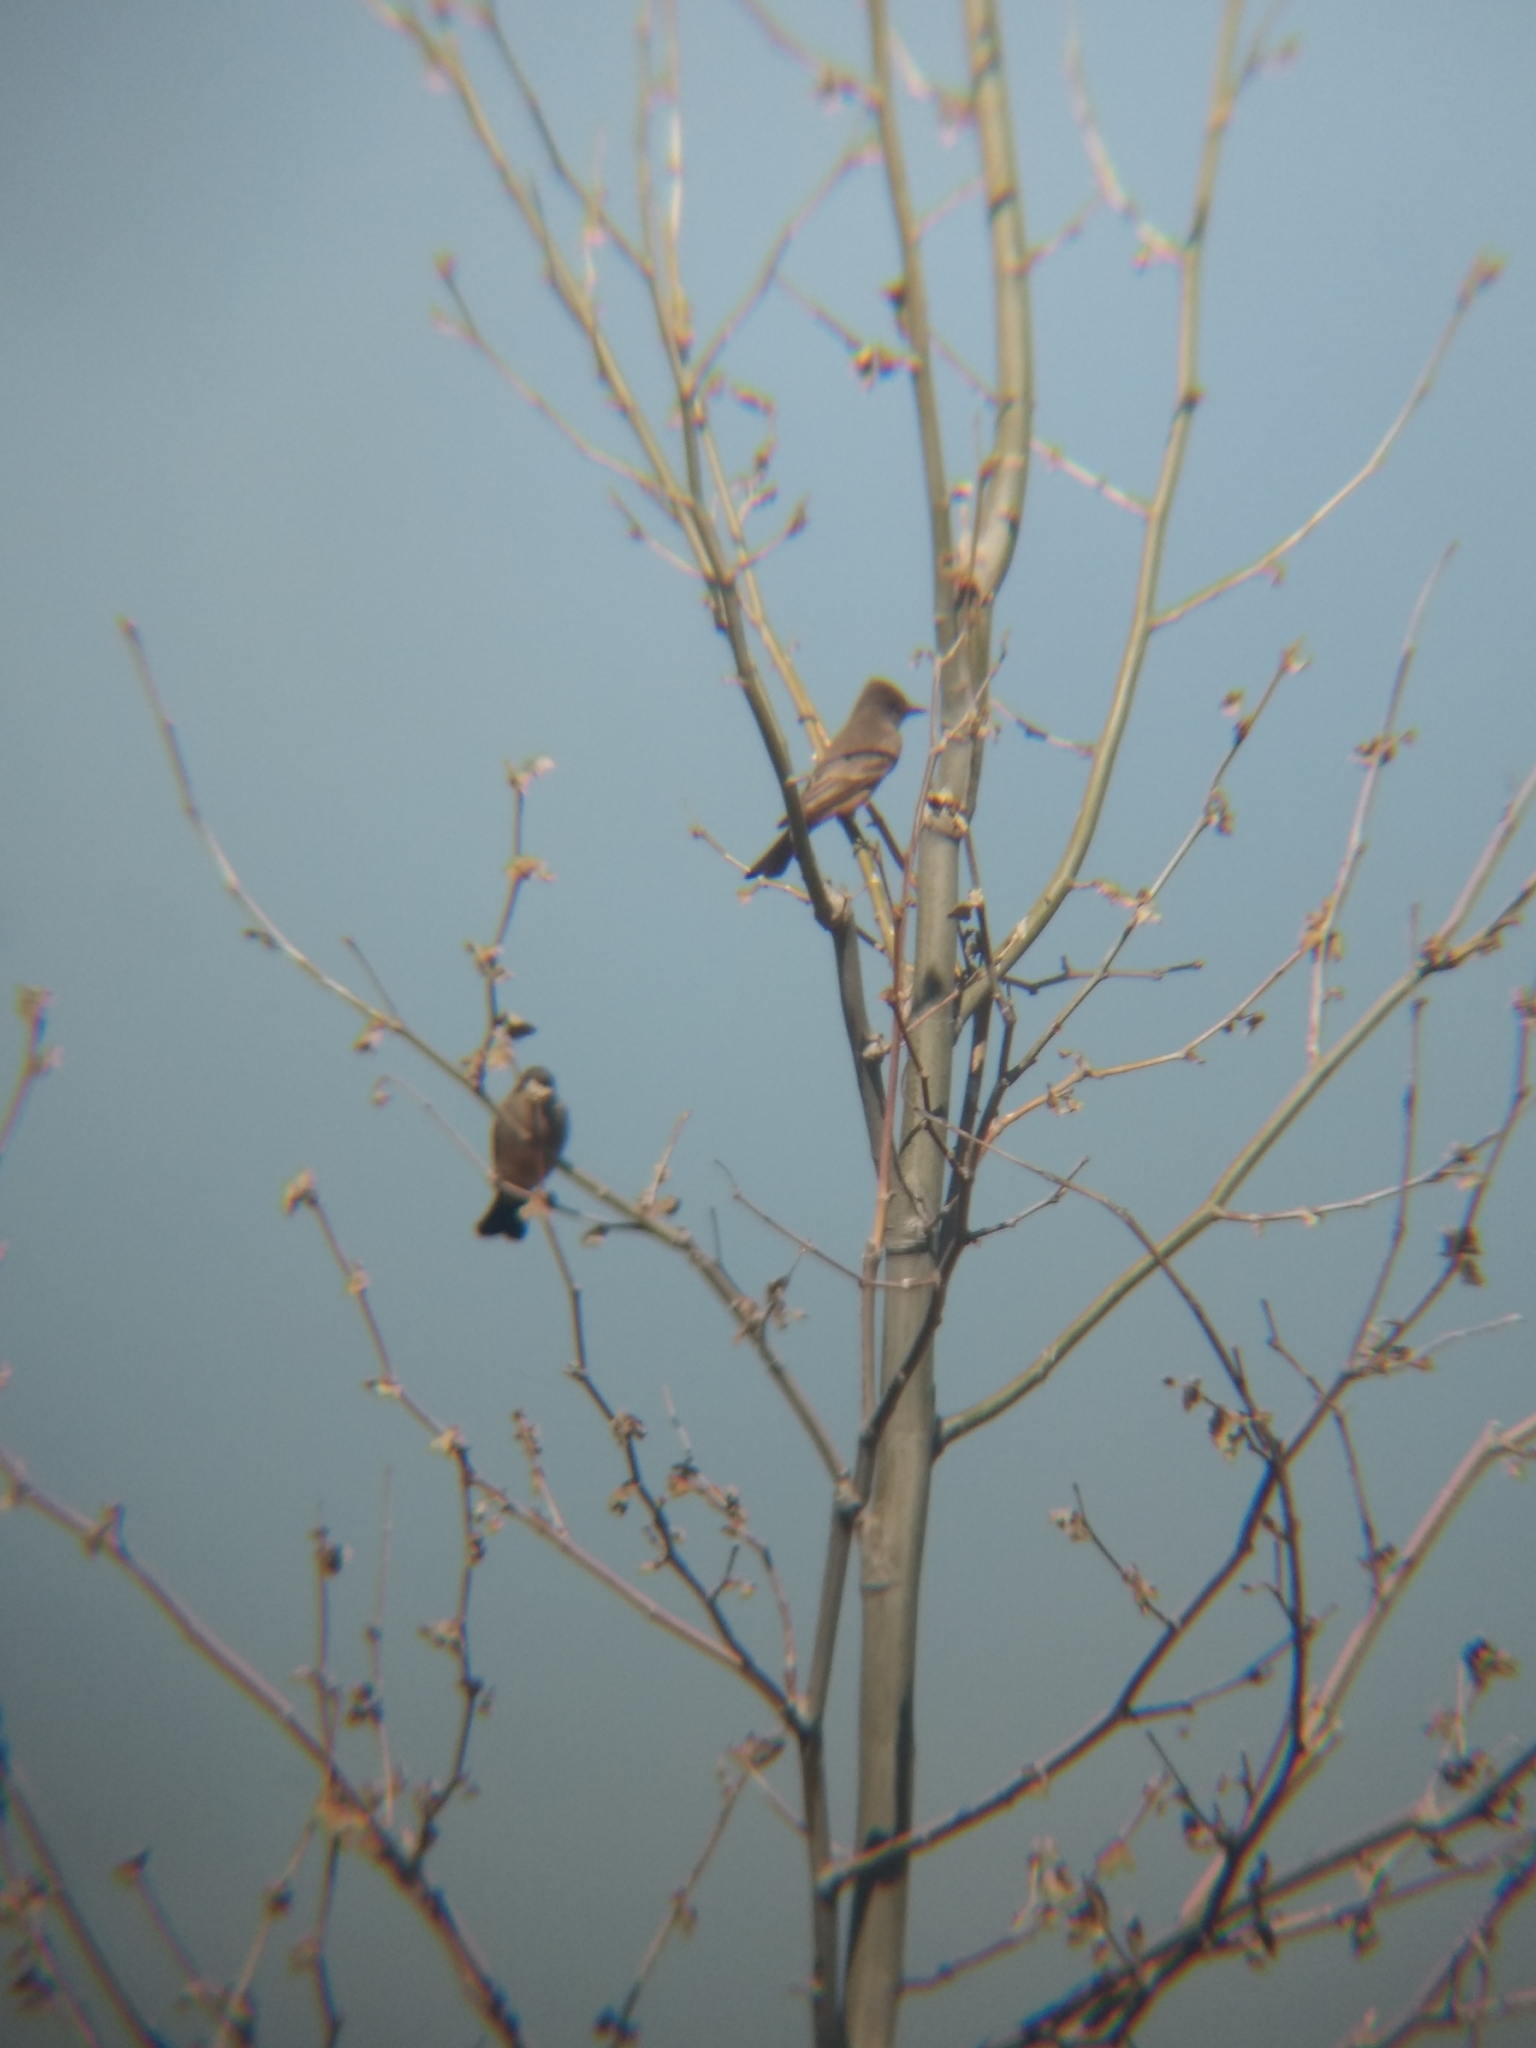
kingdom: Animalia
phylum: Chordata
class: Aves
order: Passeriformes
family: Tyrannidae
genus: Sayornis
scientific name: Sayornis saya
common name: Say's phoebe
